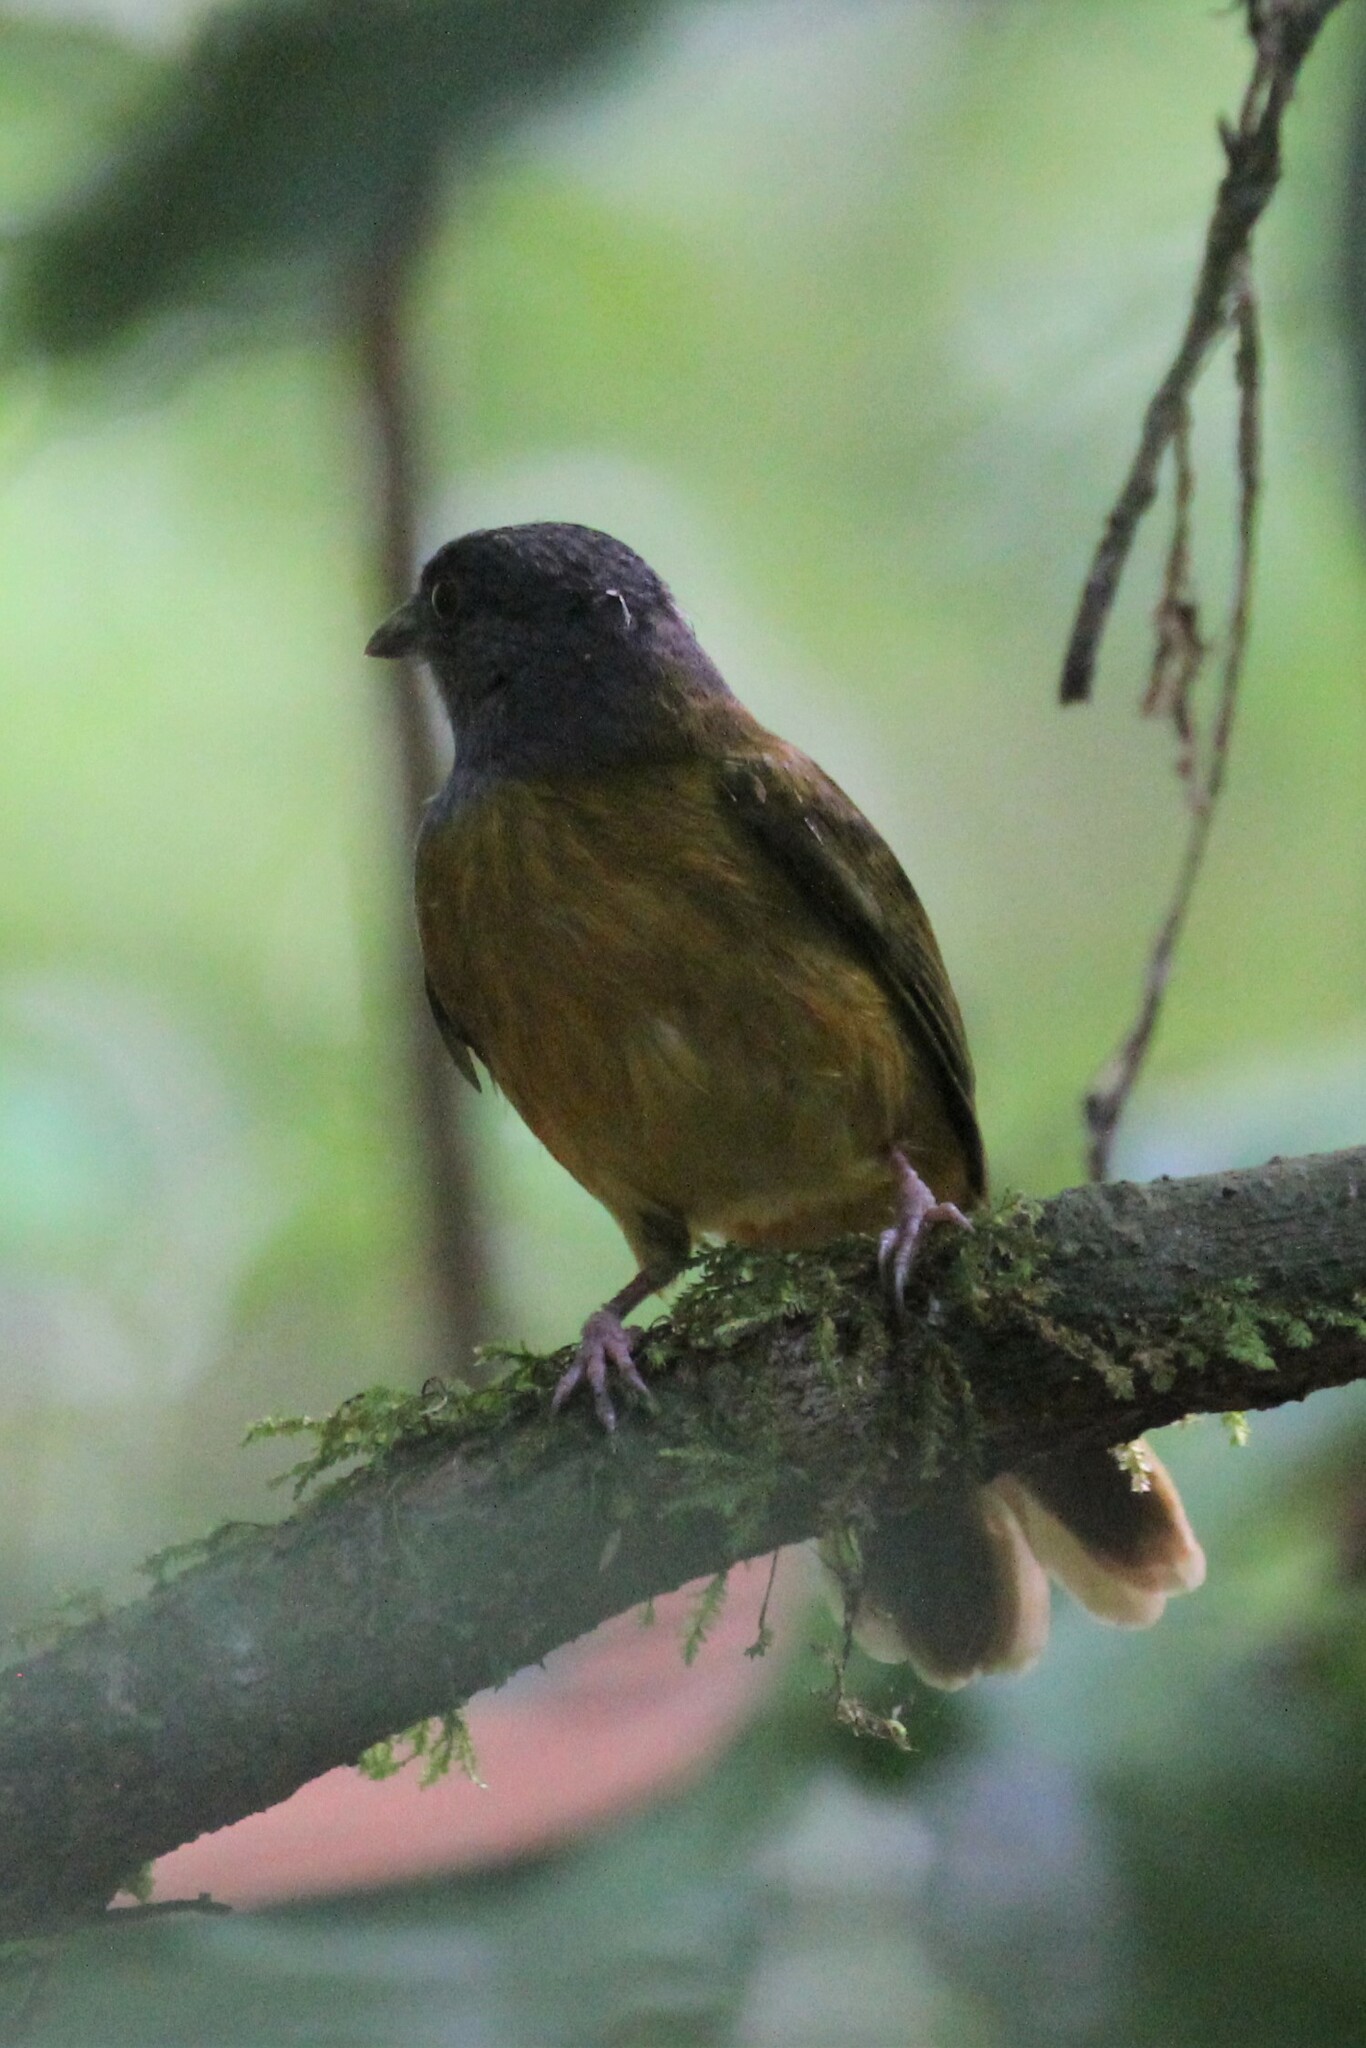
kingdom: Animalia
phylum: Chordata
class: Aves
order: Passeriformes
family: Thraupidae
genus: Eucometis
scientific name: Eucometis penicillata
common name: Grey-headed tanager
